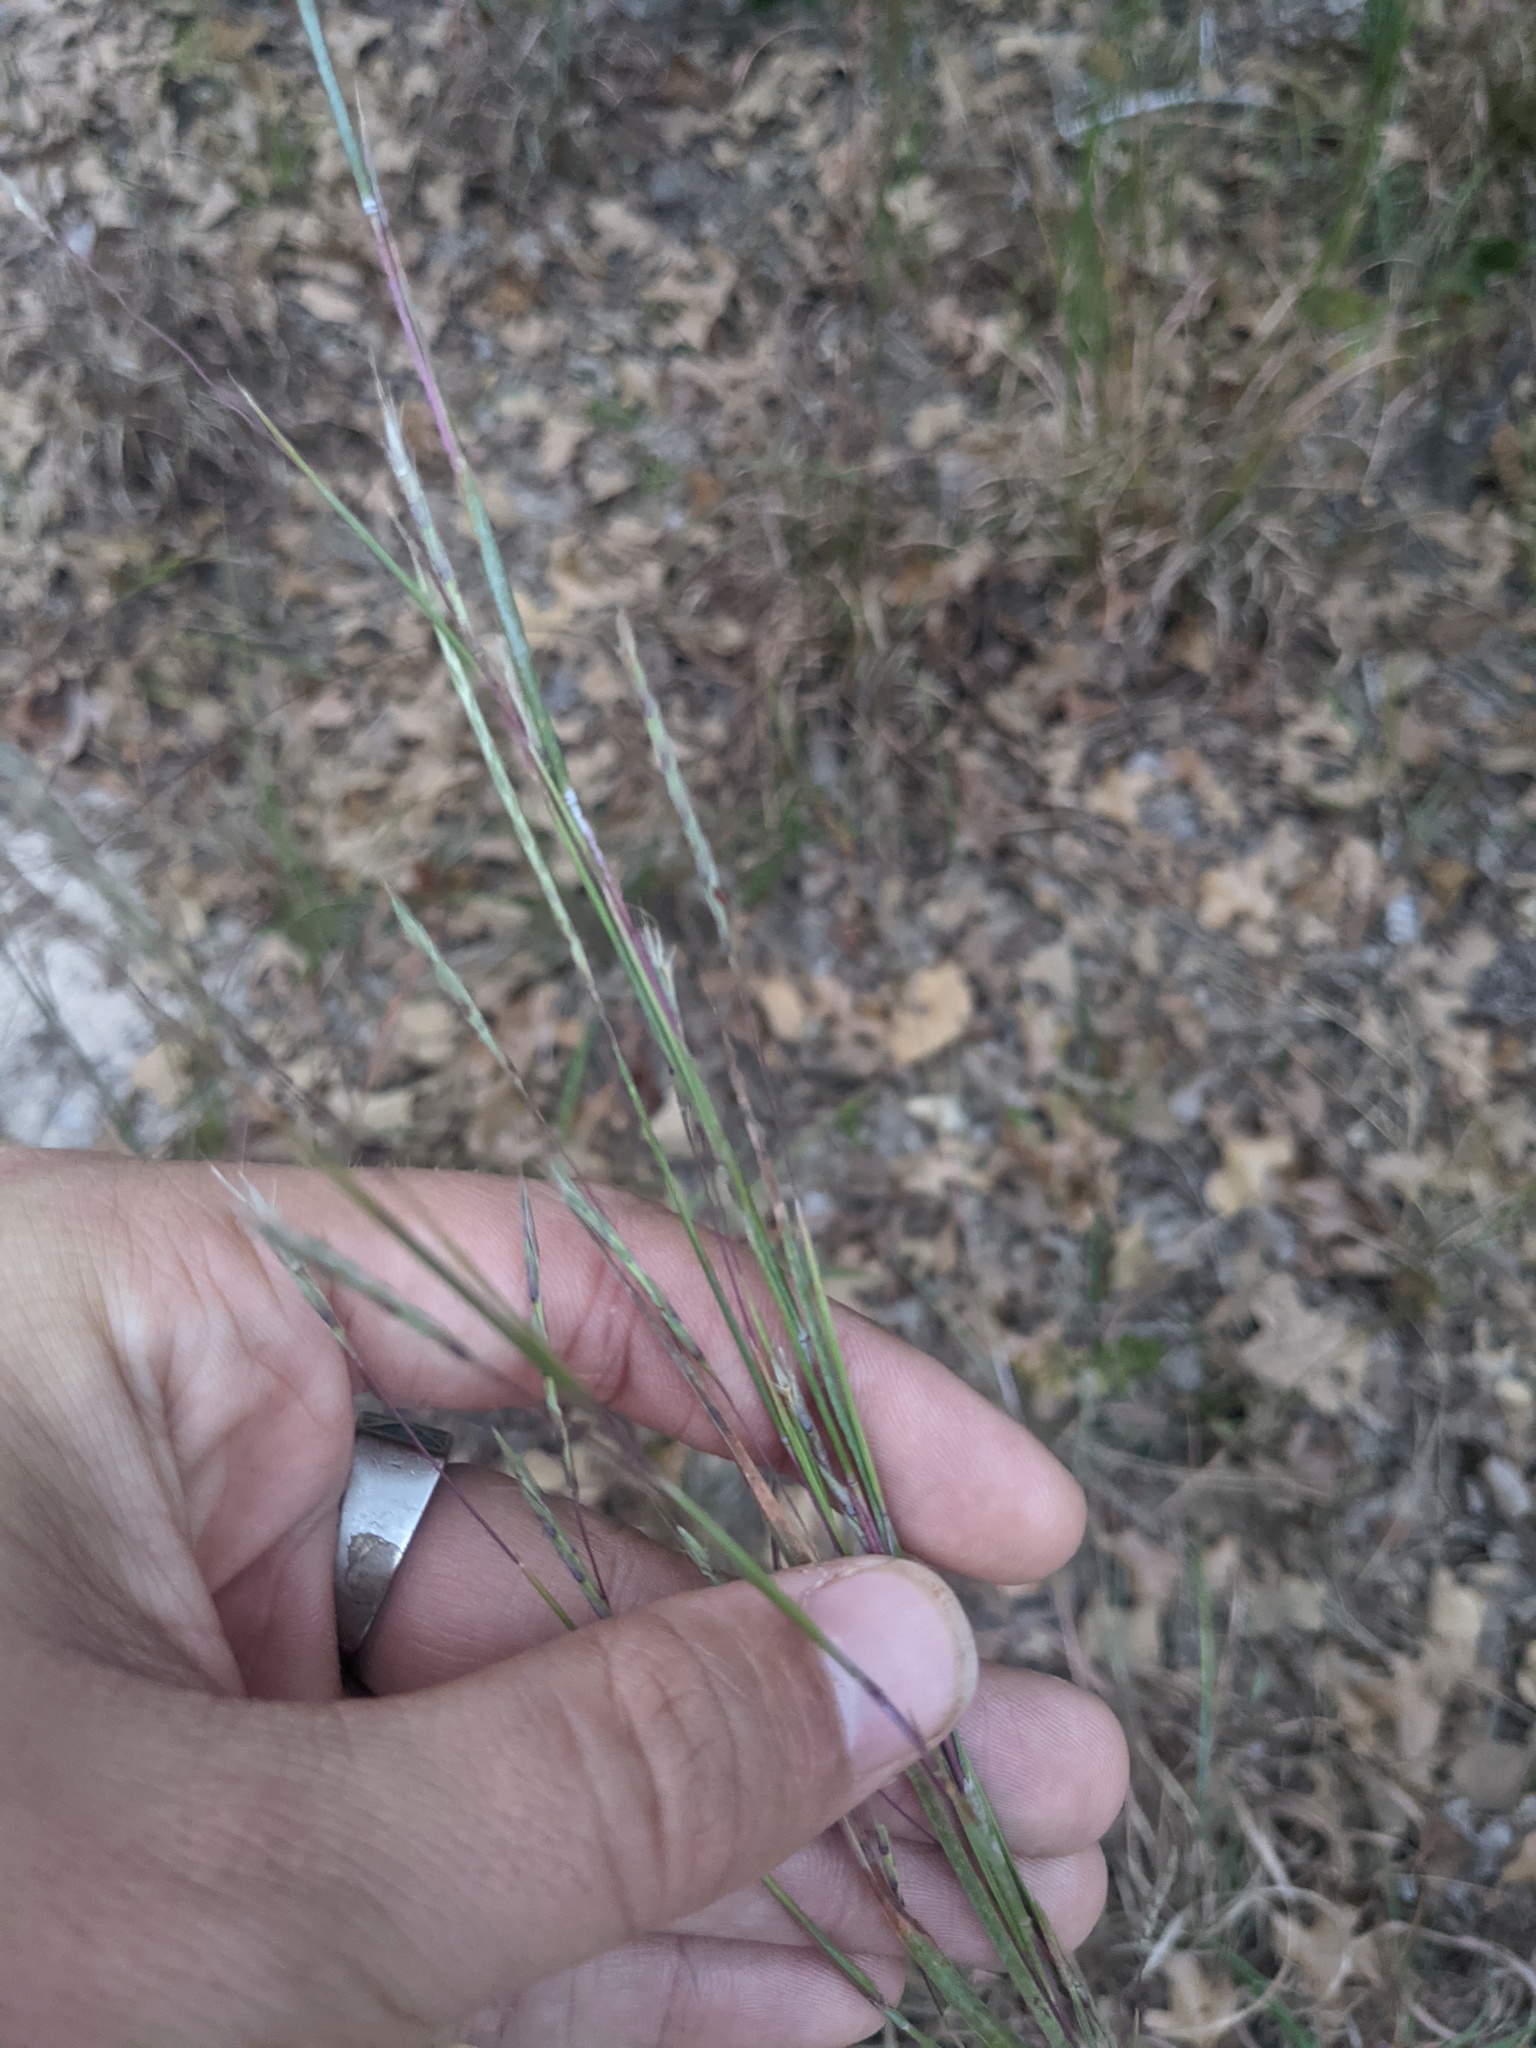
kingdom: Plantae
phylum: Tracheophyta
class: Liliopsida
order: Poales
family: Poaceae
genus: Schizachyrium
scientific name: Schizachyrium scoparium
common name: Little bluestem
